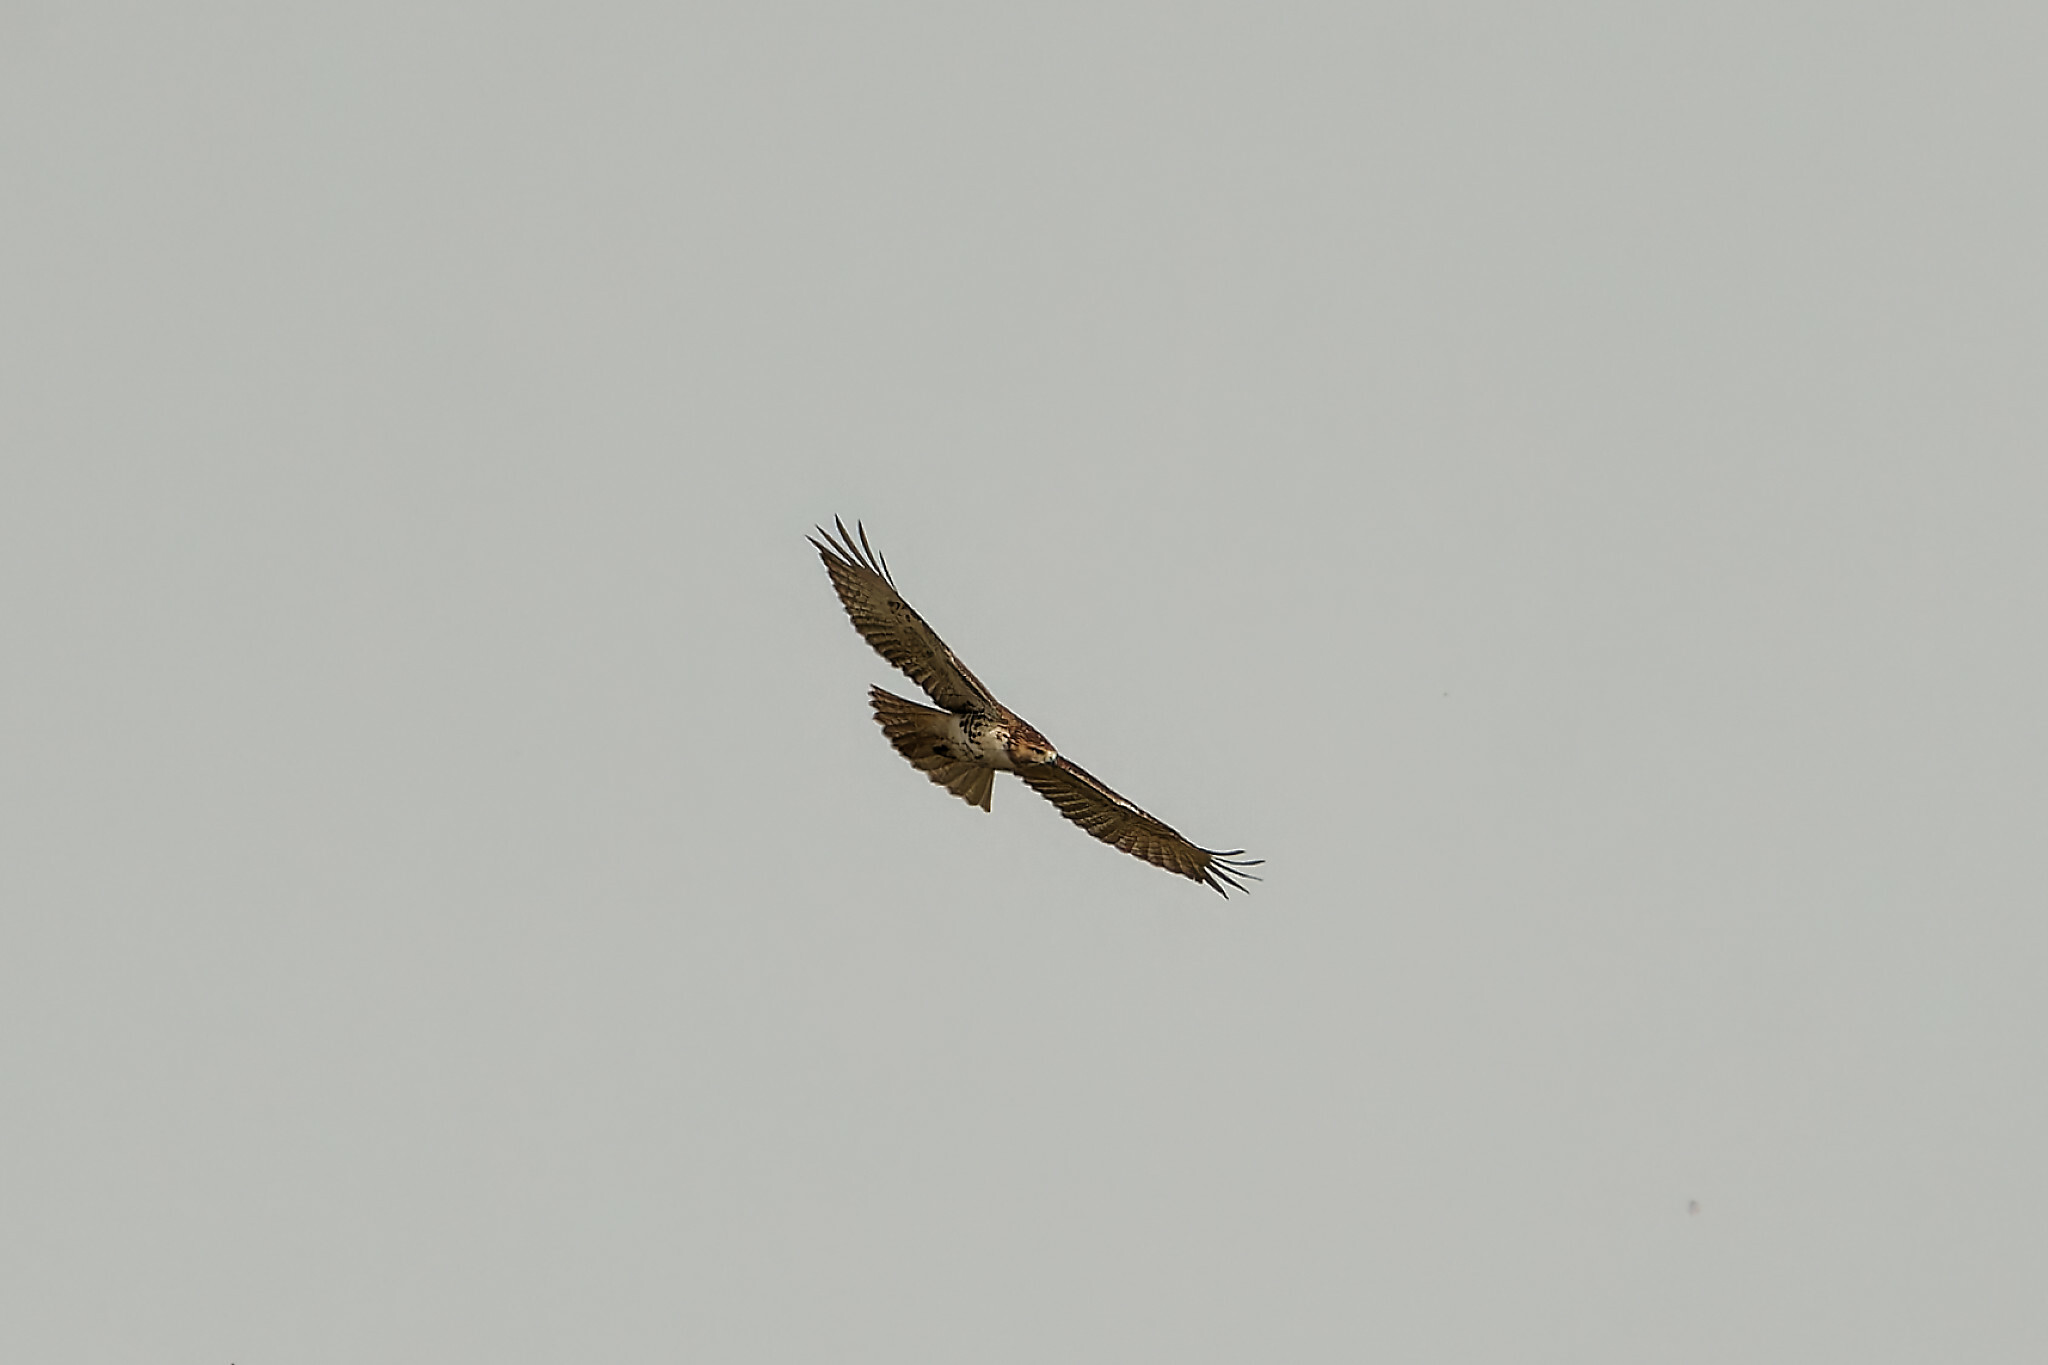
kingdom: Animalia
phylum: Chordata
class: Aves
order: Accipitriformes
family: Accipitridae
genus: Buteo
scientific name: Buteo jamaicensis
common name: Red-tailed hawk
